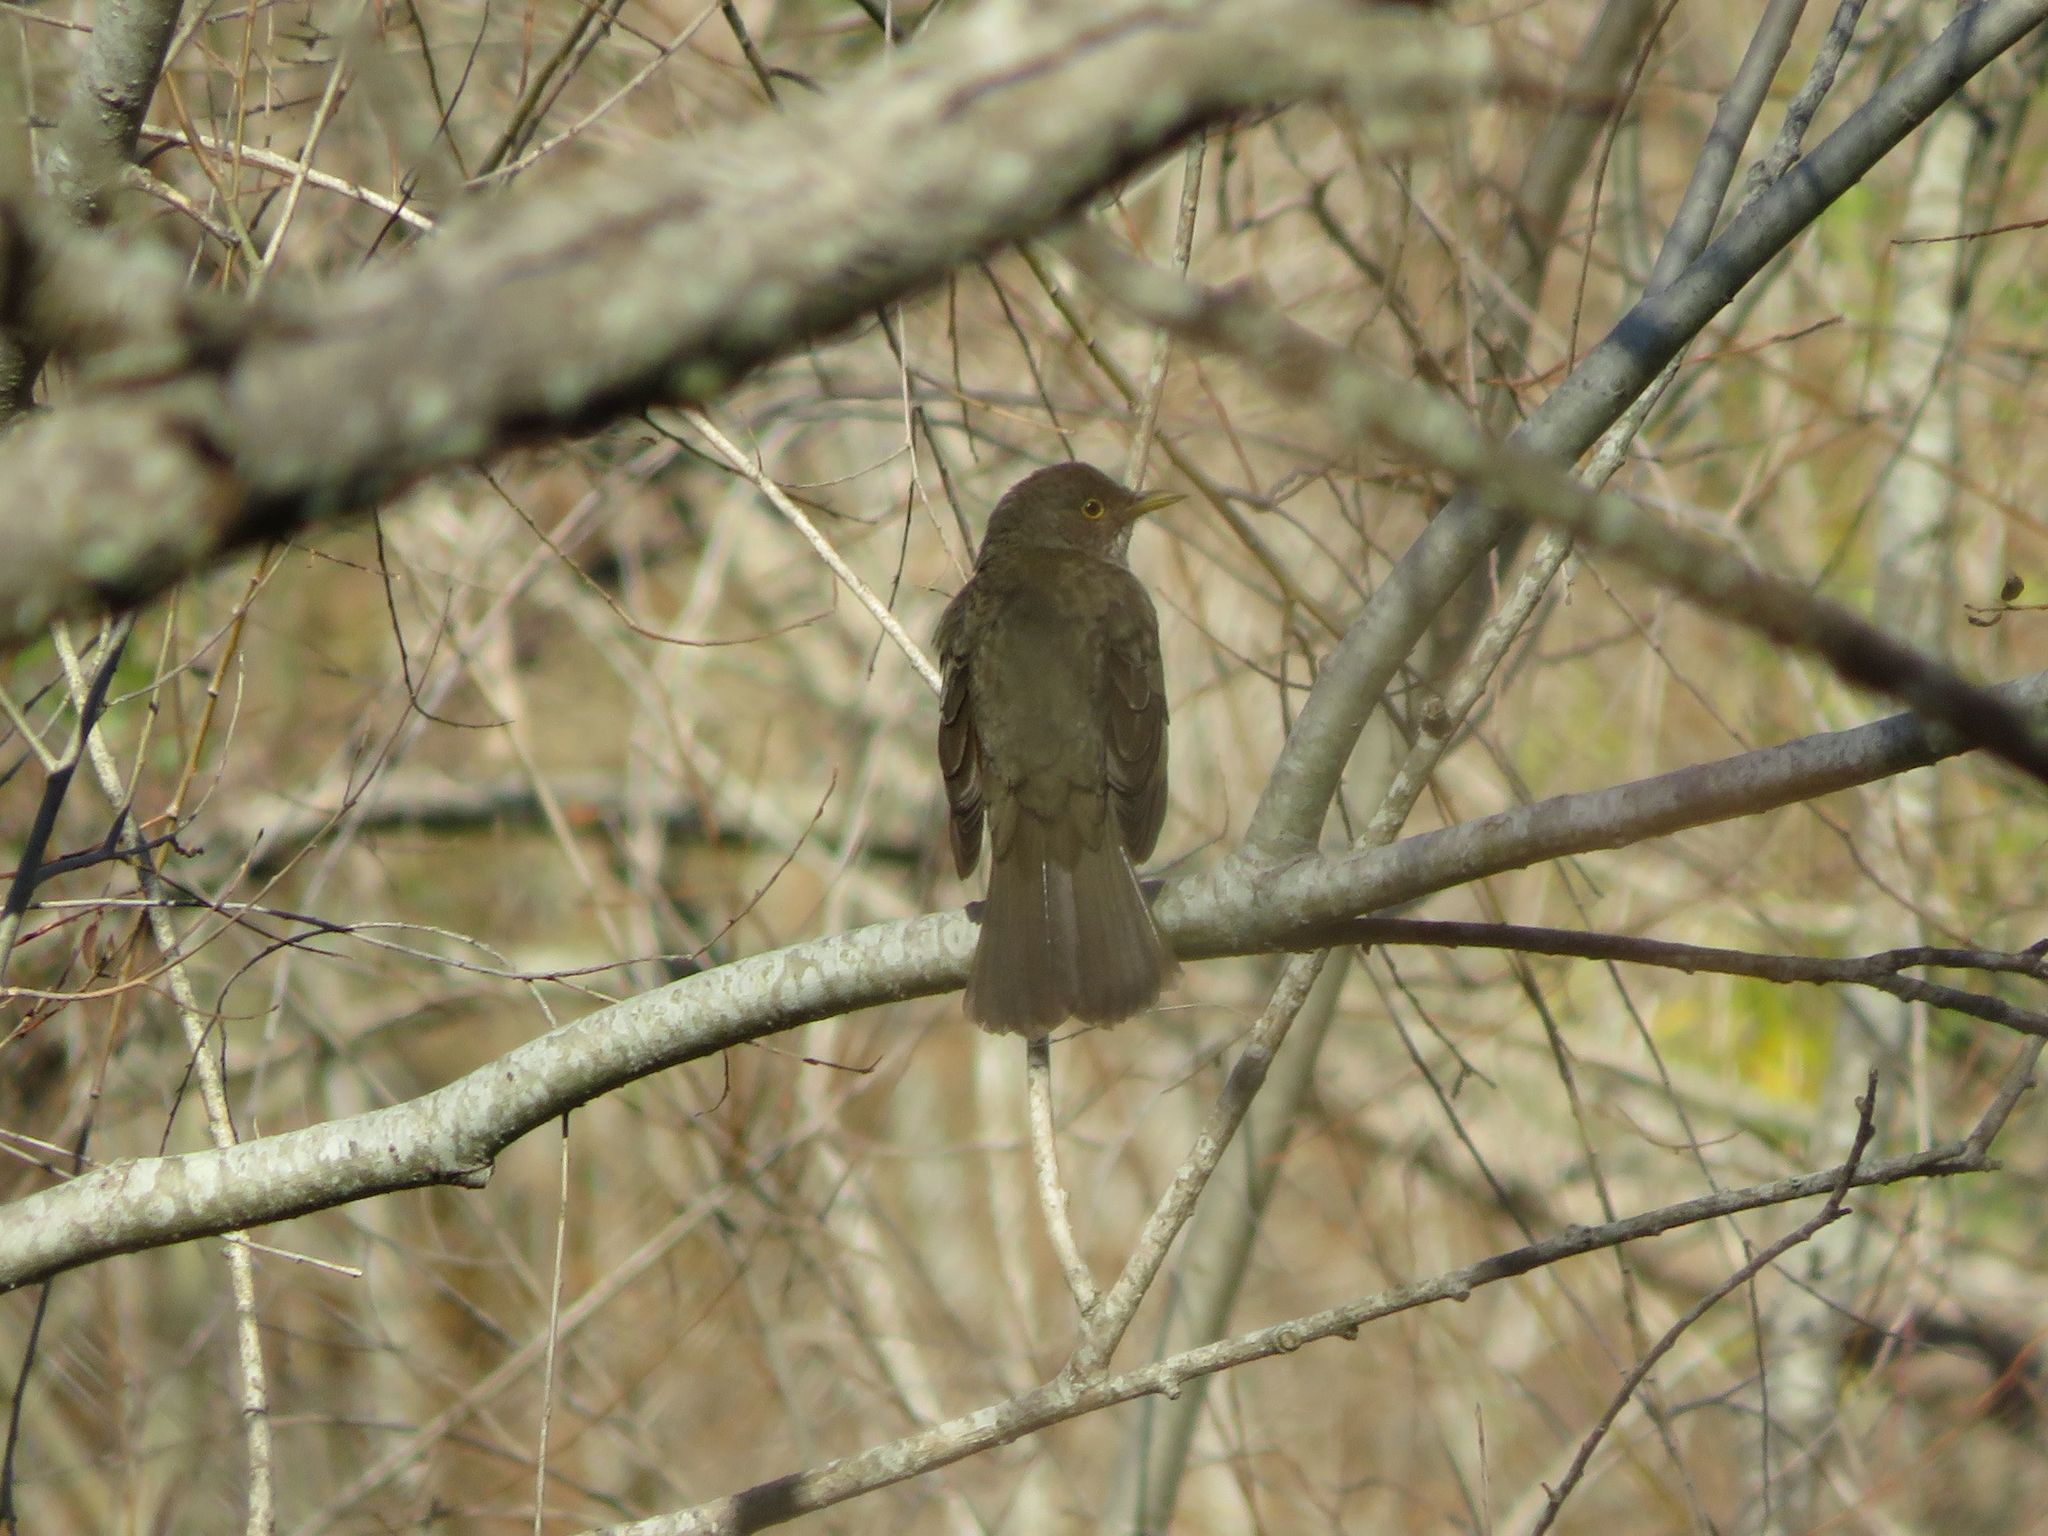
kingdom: Animalia
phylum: Chordata
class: Aves
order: Passeriformes
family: Turdidae
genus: Turdus
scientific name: Turdus rufiventris
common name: Rufous-bellied thrush
